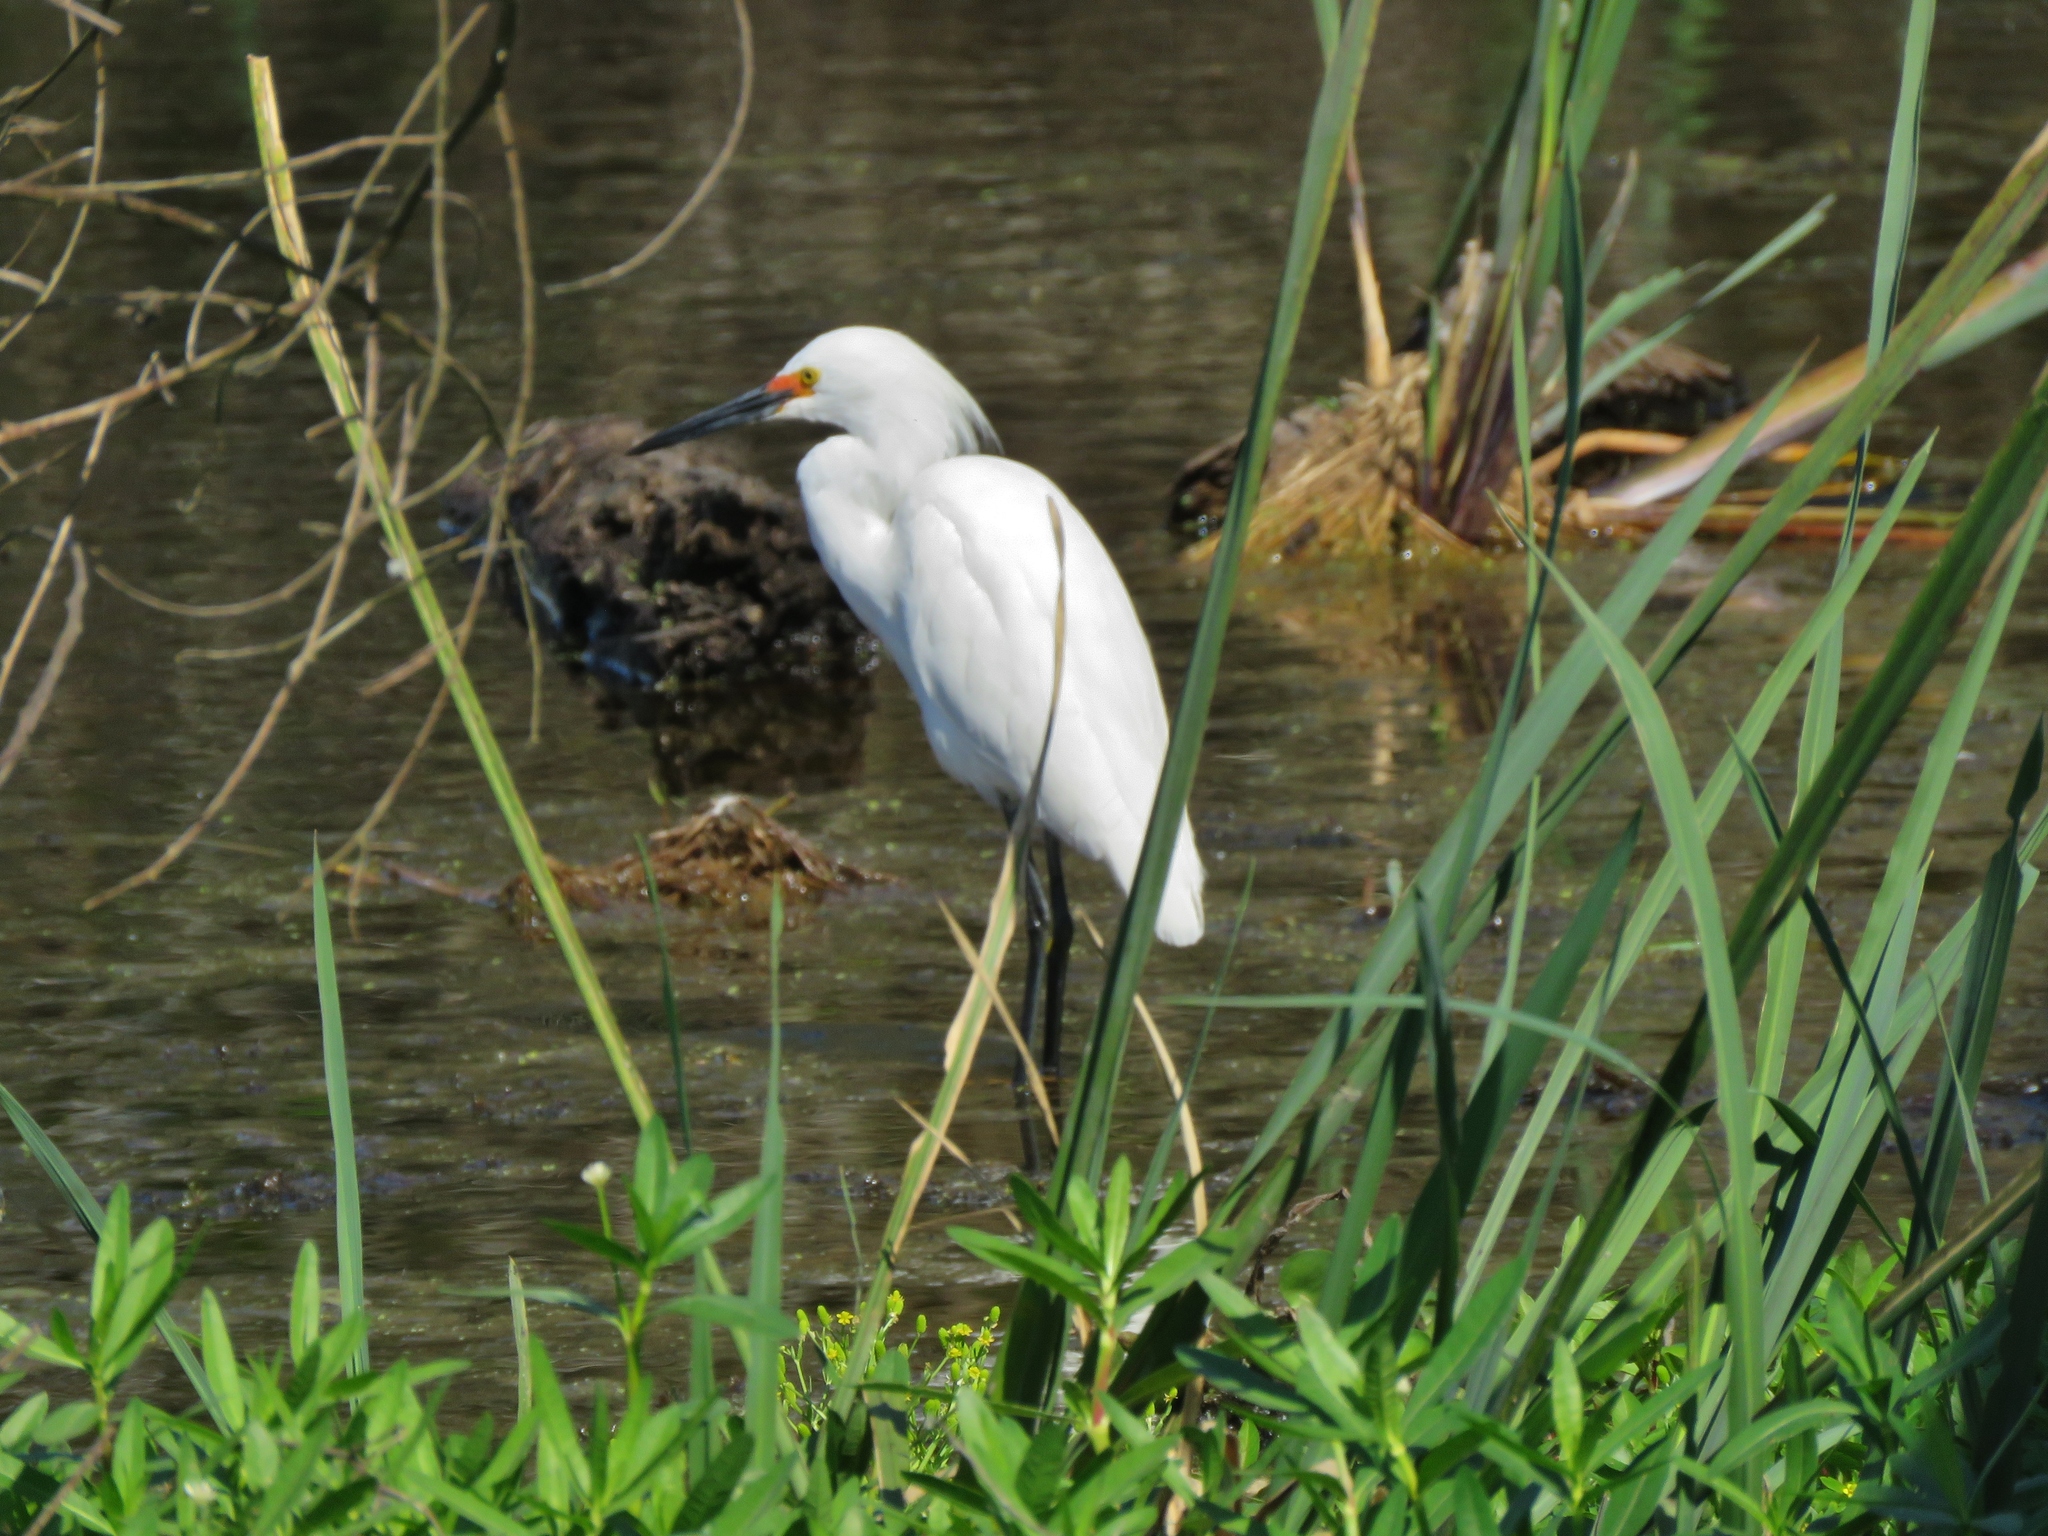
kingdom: Animalia
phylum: Chordata
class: Aves
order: Pelecaniformes
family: Ardeidae
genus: Egretta
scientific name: Egretta thula
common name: Snowy egret
